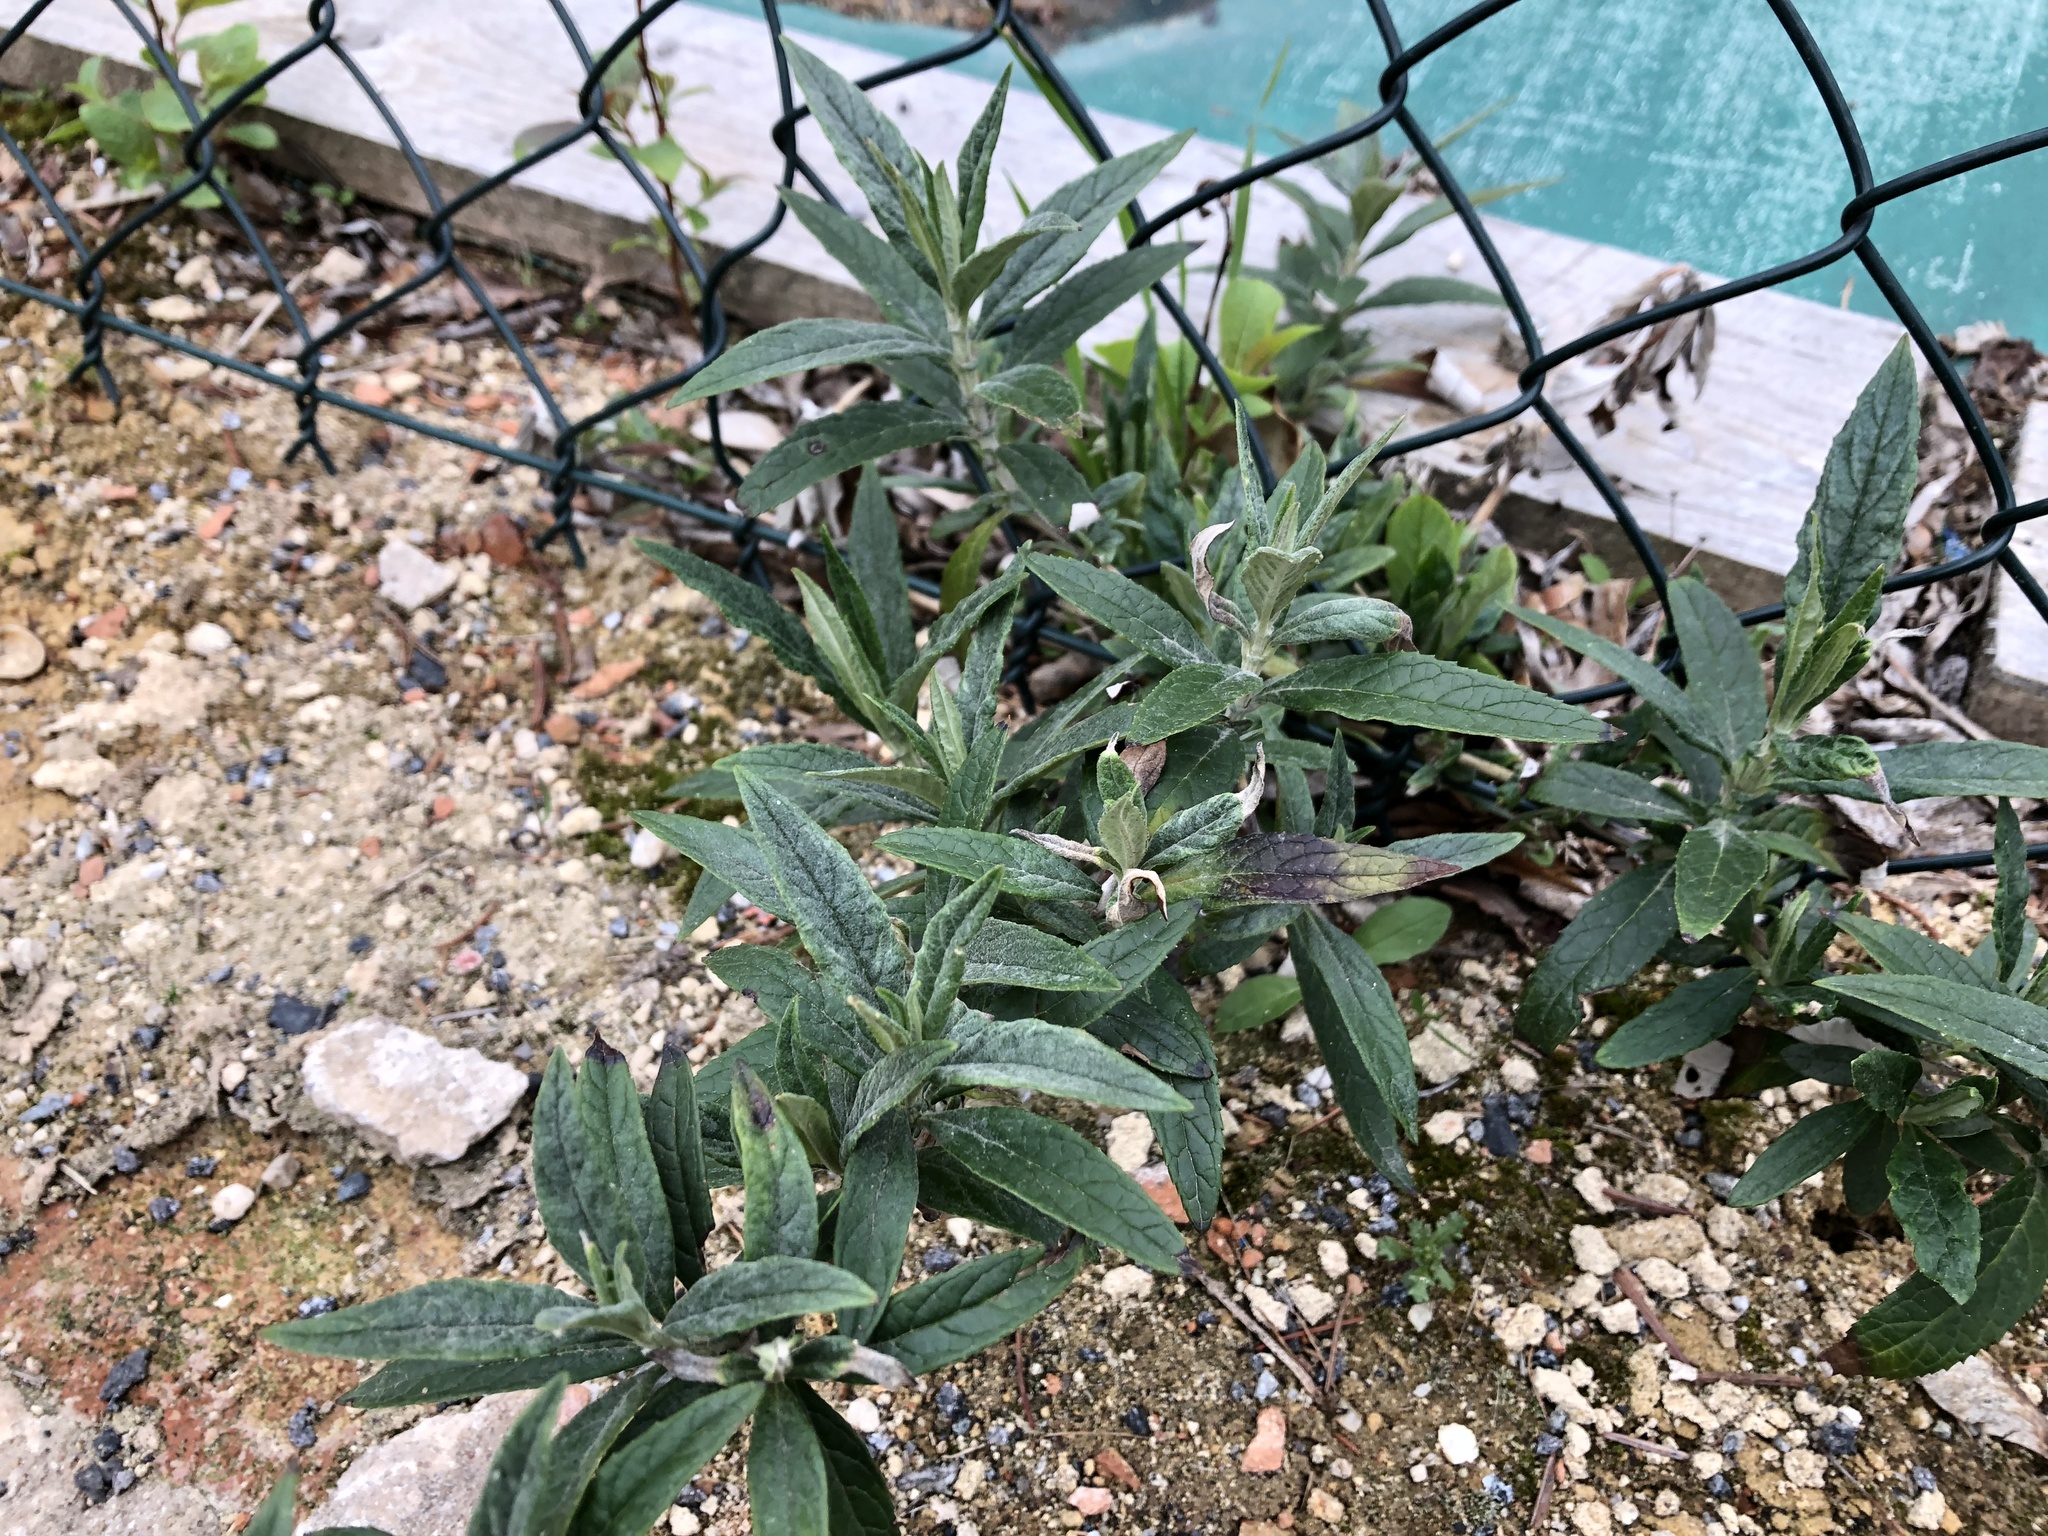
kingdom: Plantae
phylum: Tracheophyta
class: Magnoliopsida
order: Lamiales
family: Scrophulariaceae
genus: Buddleja
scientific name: Buddleja davidii
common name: Butterfly-bush
